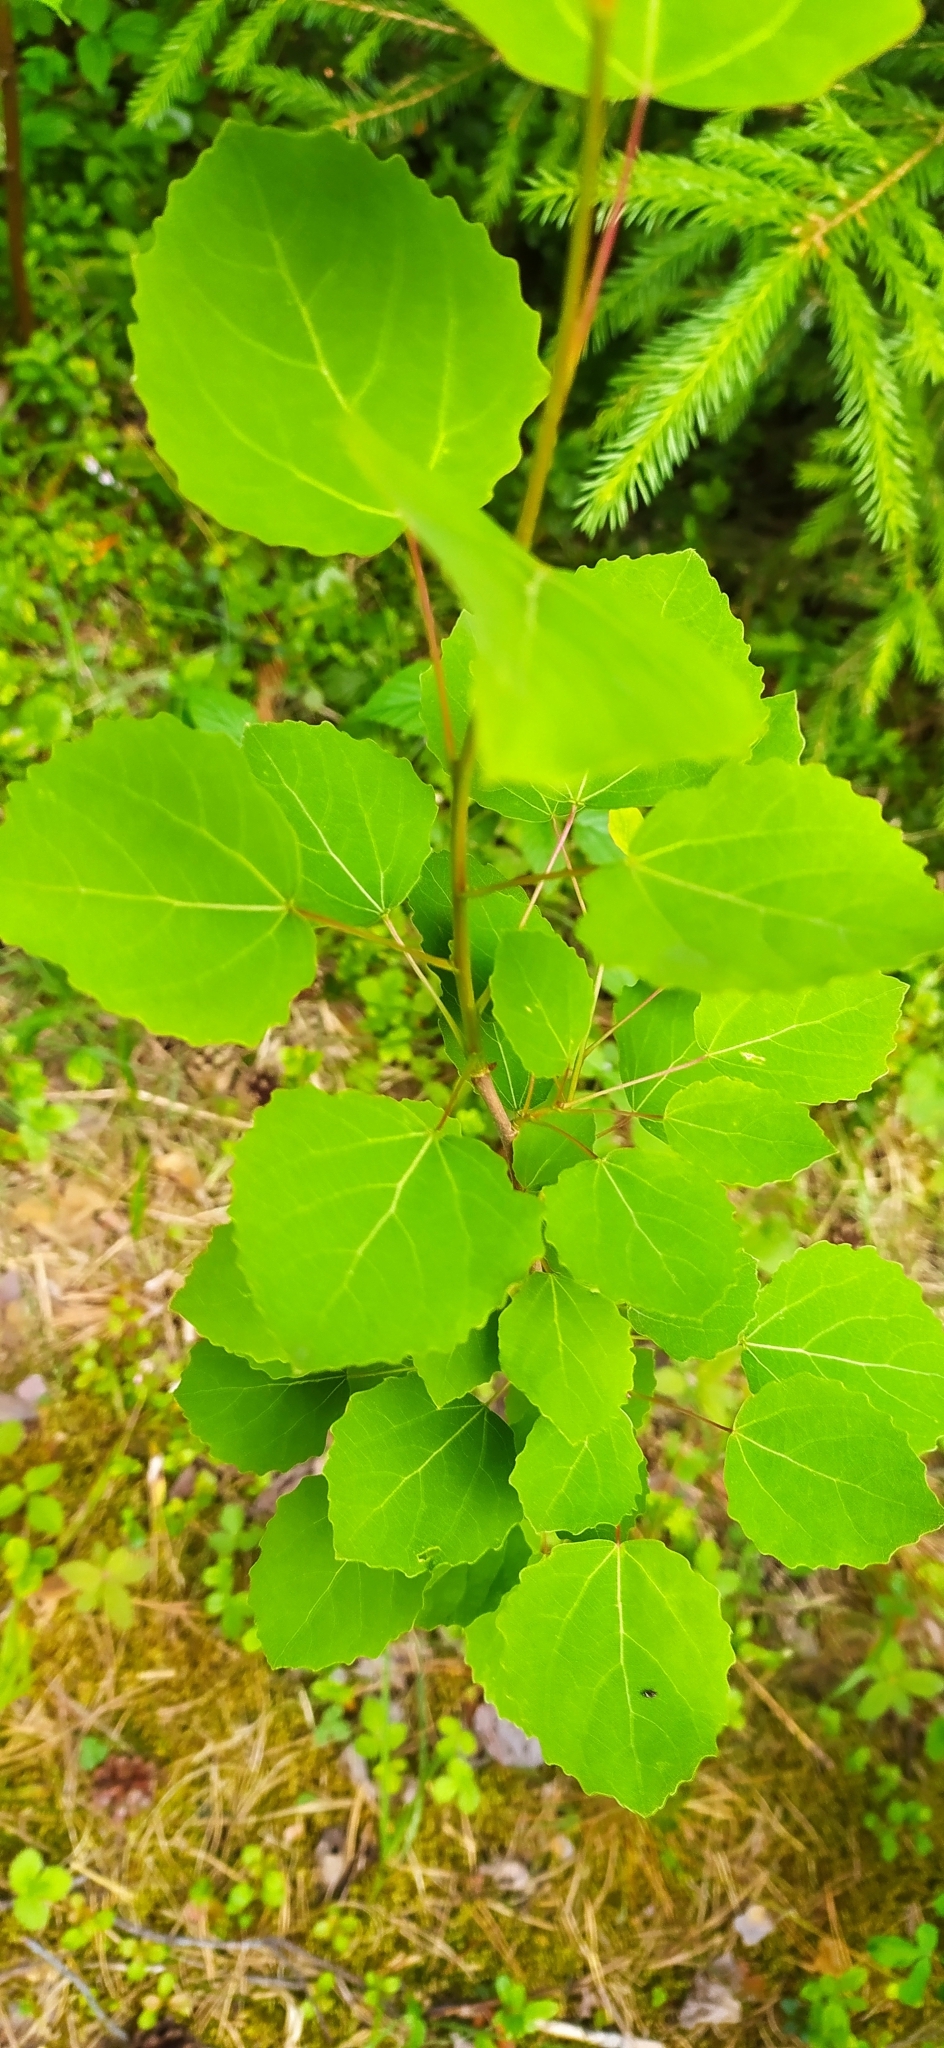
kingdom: Plantae
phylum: Tracheophyta
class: Magnoliopsida
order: Malpighiales
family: Salicaceae
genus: Populus
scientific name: Populus tremula
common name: European aspen
